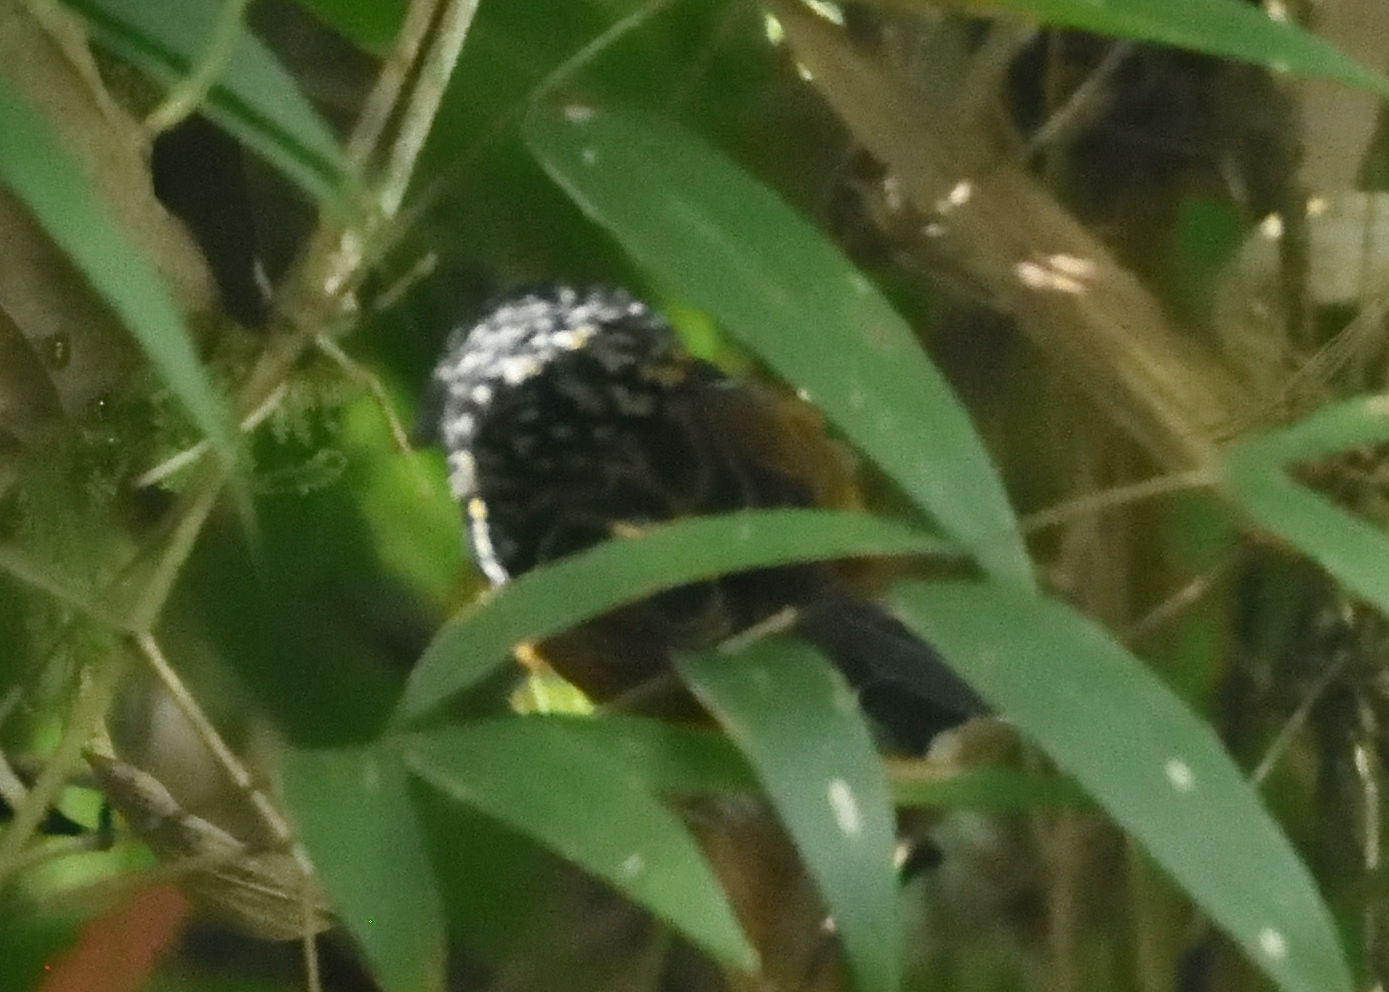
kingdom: Animalia
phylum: Chordata
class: Aves
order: Passeriformes
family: Thamnophilidae
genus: Drymophila
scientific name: Drymophila striaticeps
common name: Streak-headed antbird
